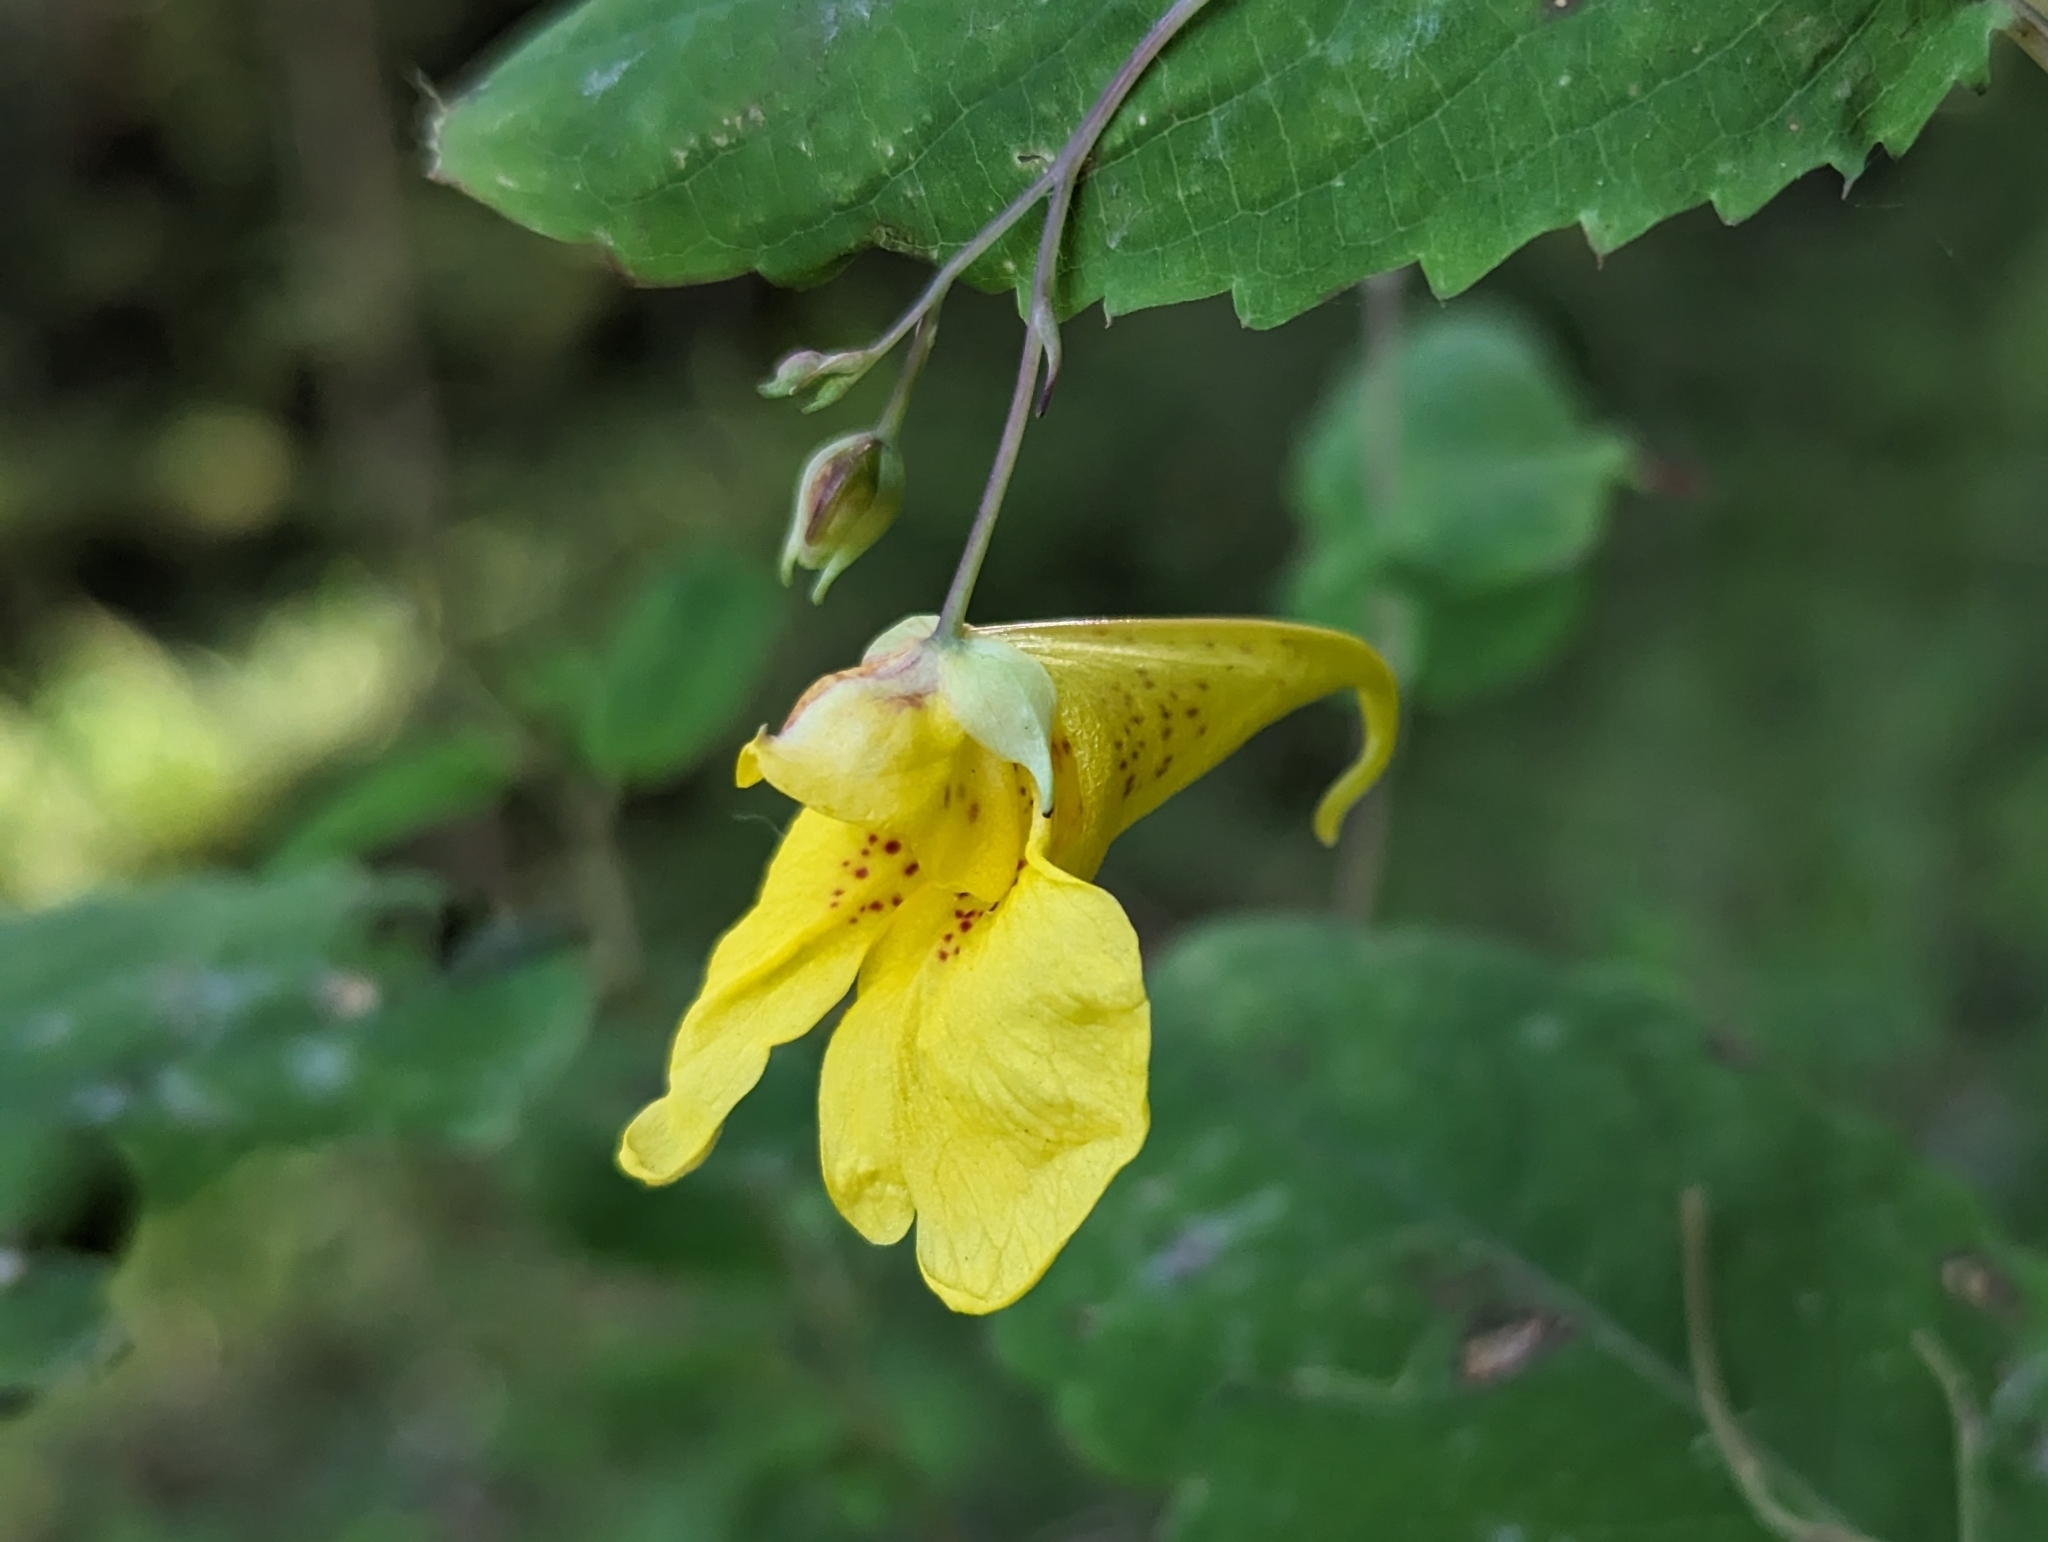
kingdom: Plantae
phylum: Tracheophyta
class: Magnoliopsida
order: Ericales
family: Balsaminaceae
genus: Impatiens
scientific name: Impatiens noli-tangere
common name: Touch-me-not balsam
